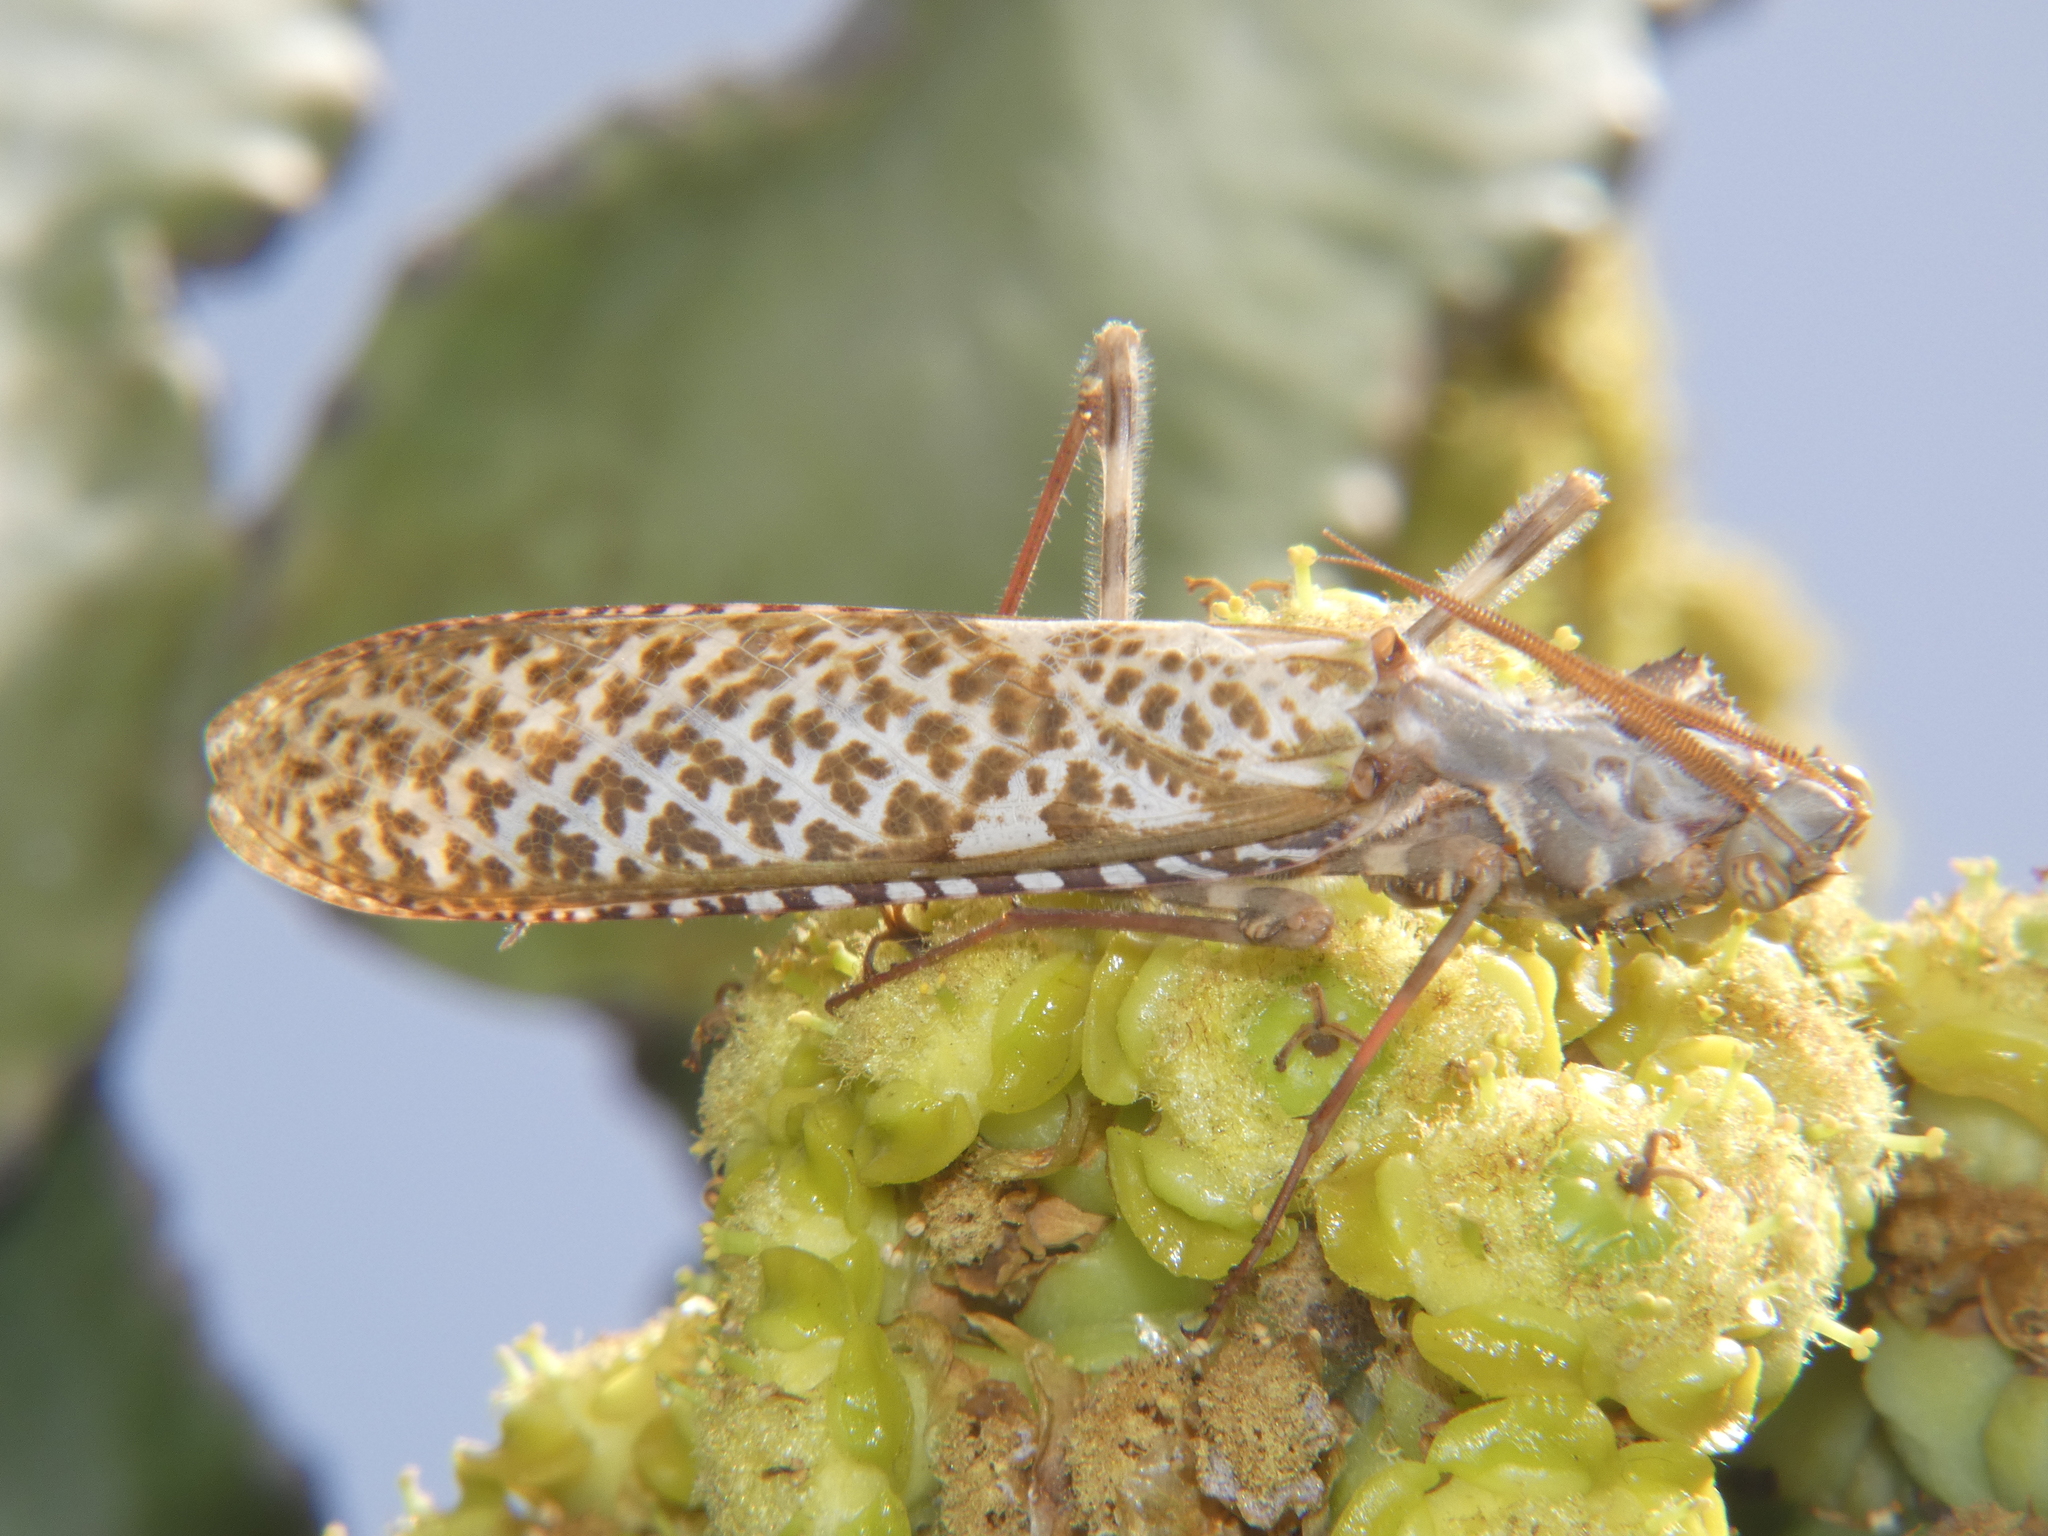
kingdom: Animalia
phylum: Arthropoda
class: Insecta
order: Mantodea
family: Empusidae
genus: Blepharopsis
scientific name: Blepharopsis mendica
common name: Devil's flower mantis
